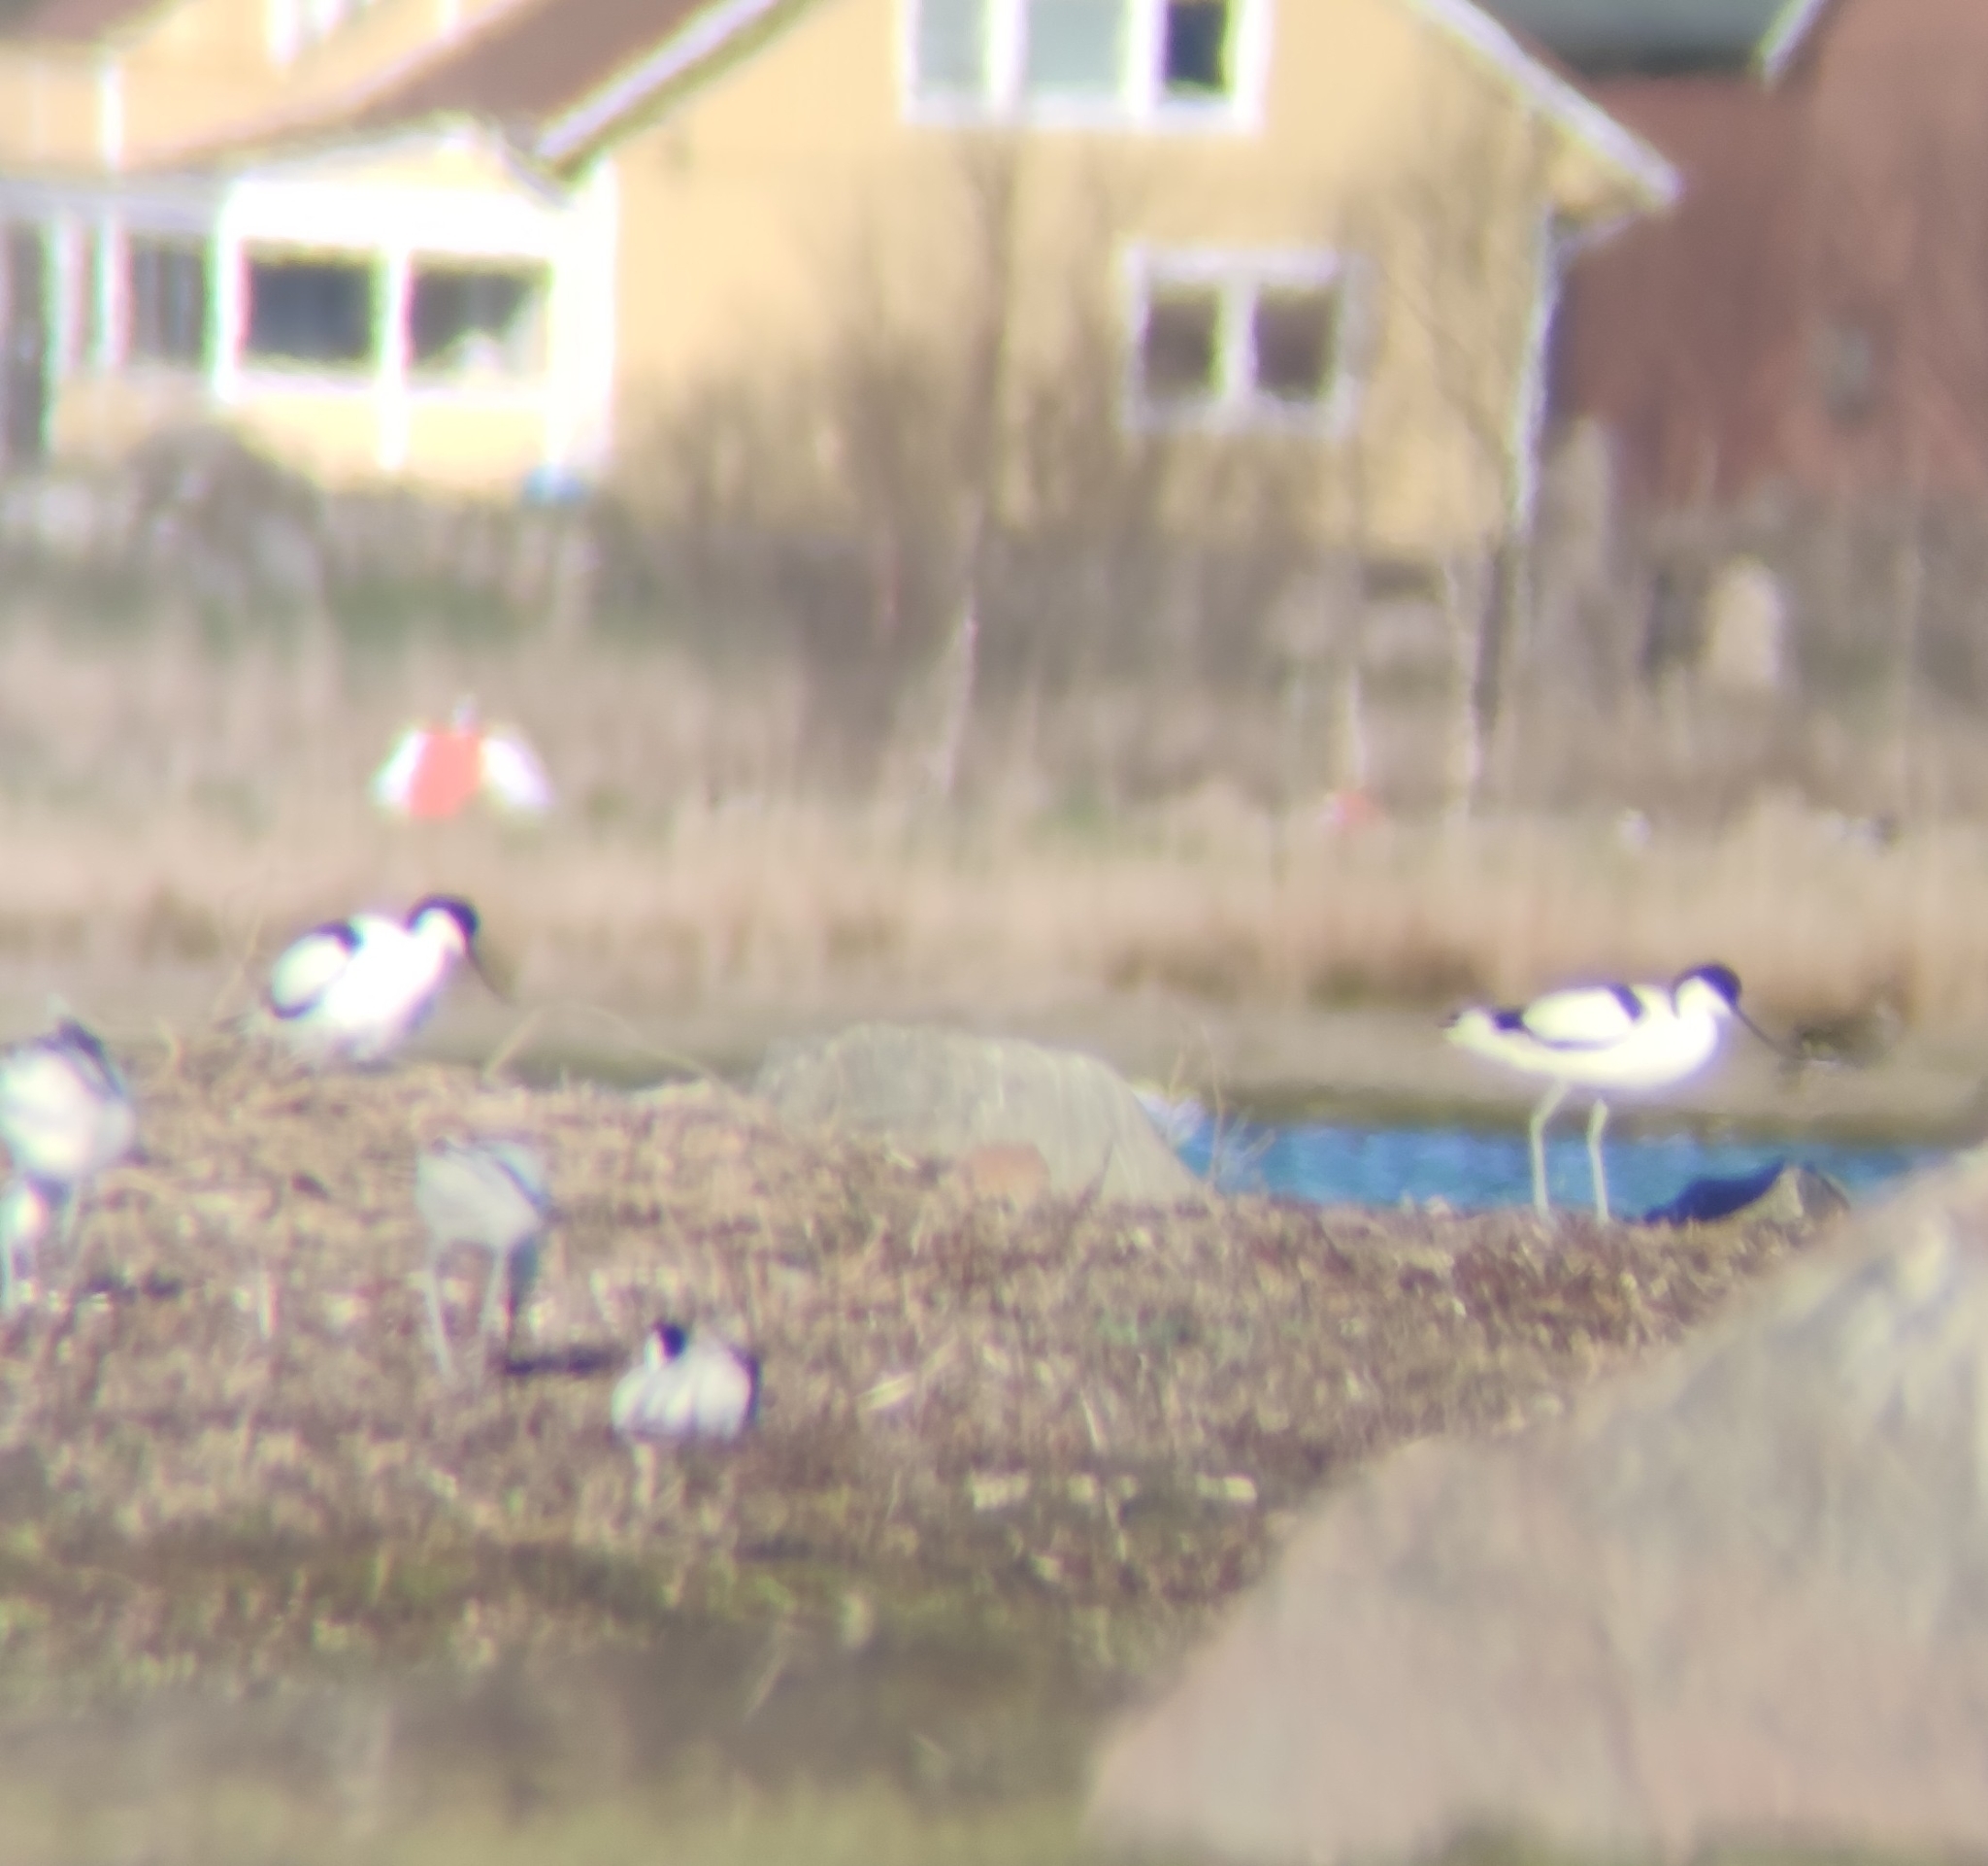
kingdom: Animalia
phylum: Chordata
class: Aves
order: Charadriiformes
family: Recurvirostridae
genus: Recurvirostra
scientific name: Recurvirostra avosetta
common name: Pied avocet
